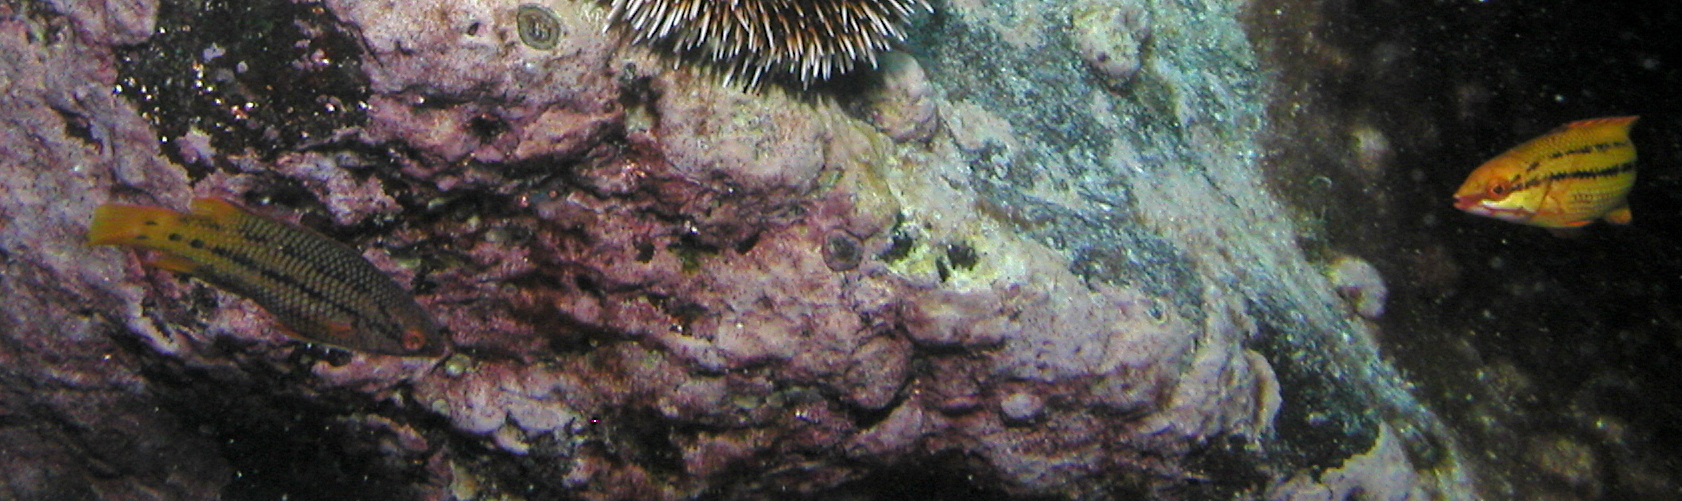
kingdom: Animalia
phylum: Chordata
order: Perciformes
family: Labridae
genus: Bodianus
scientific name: Bodianus diplotaenia
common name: Mexican hogfish
